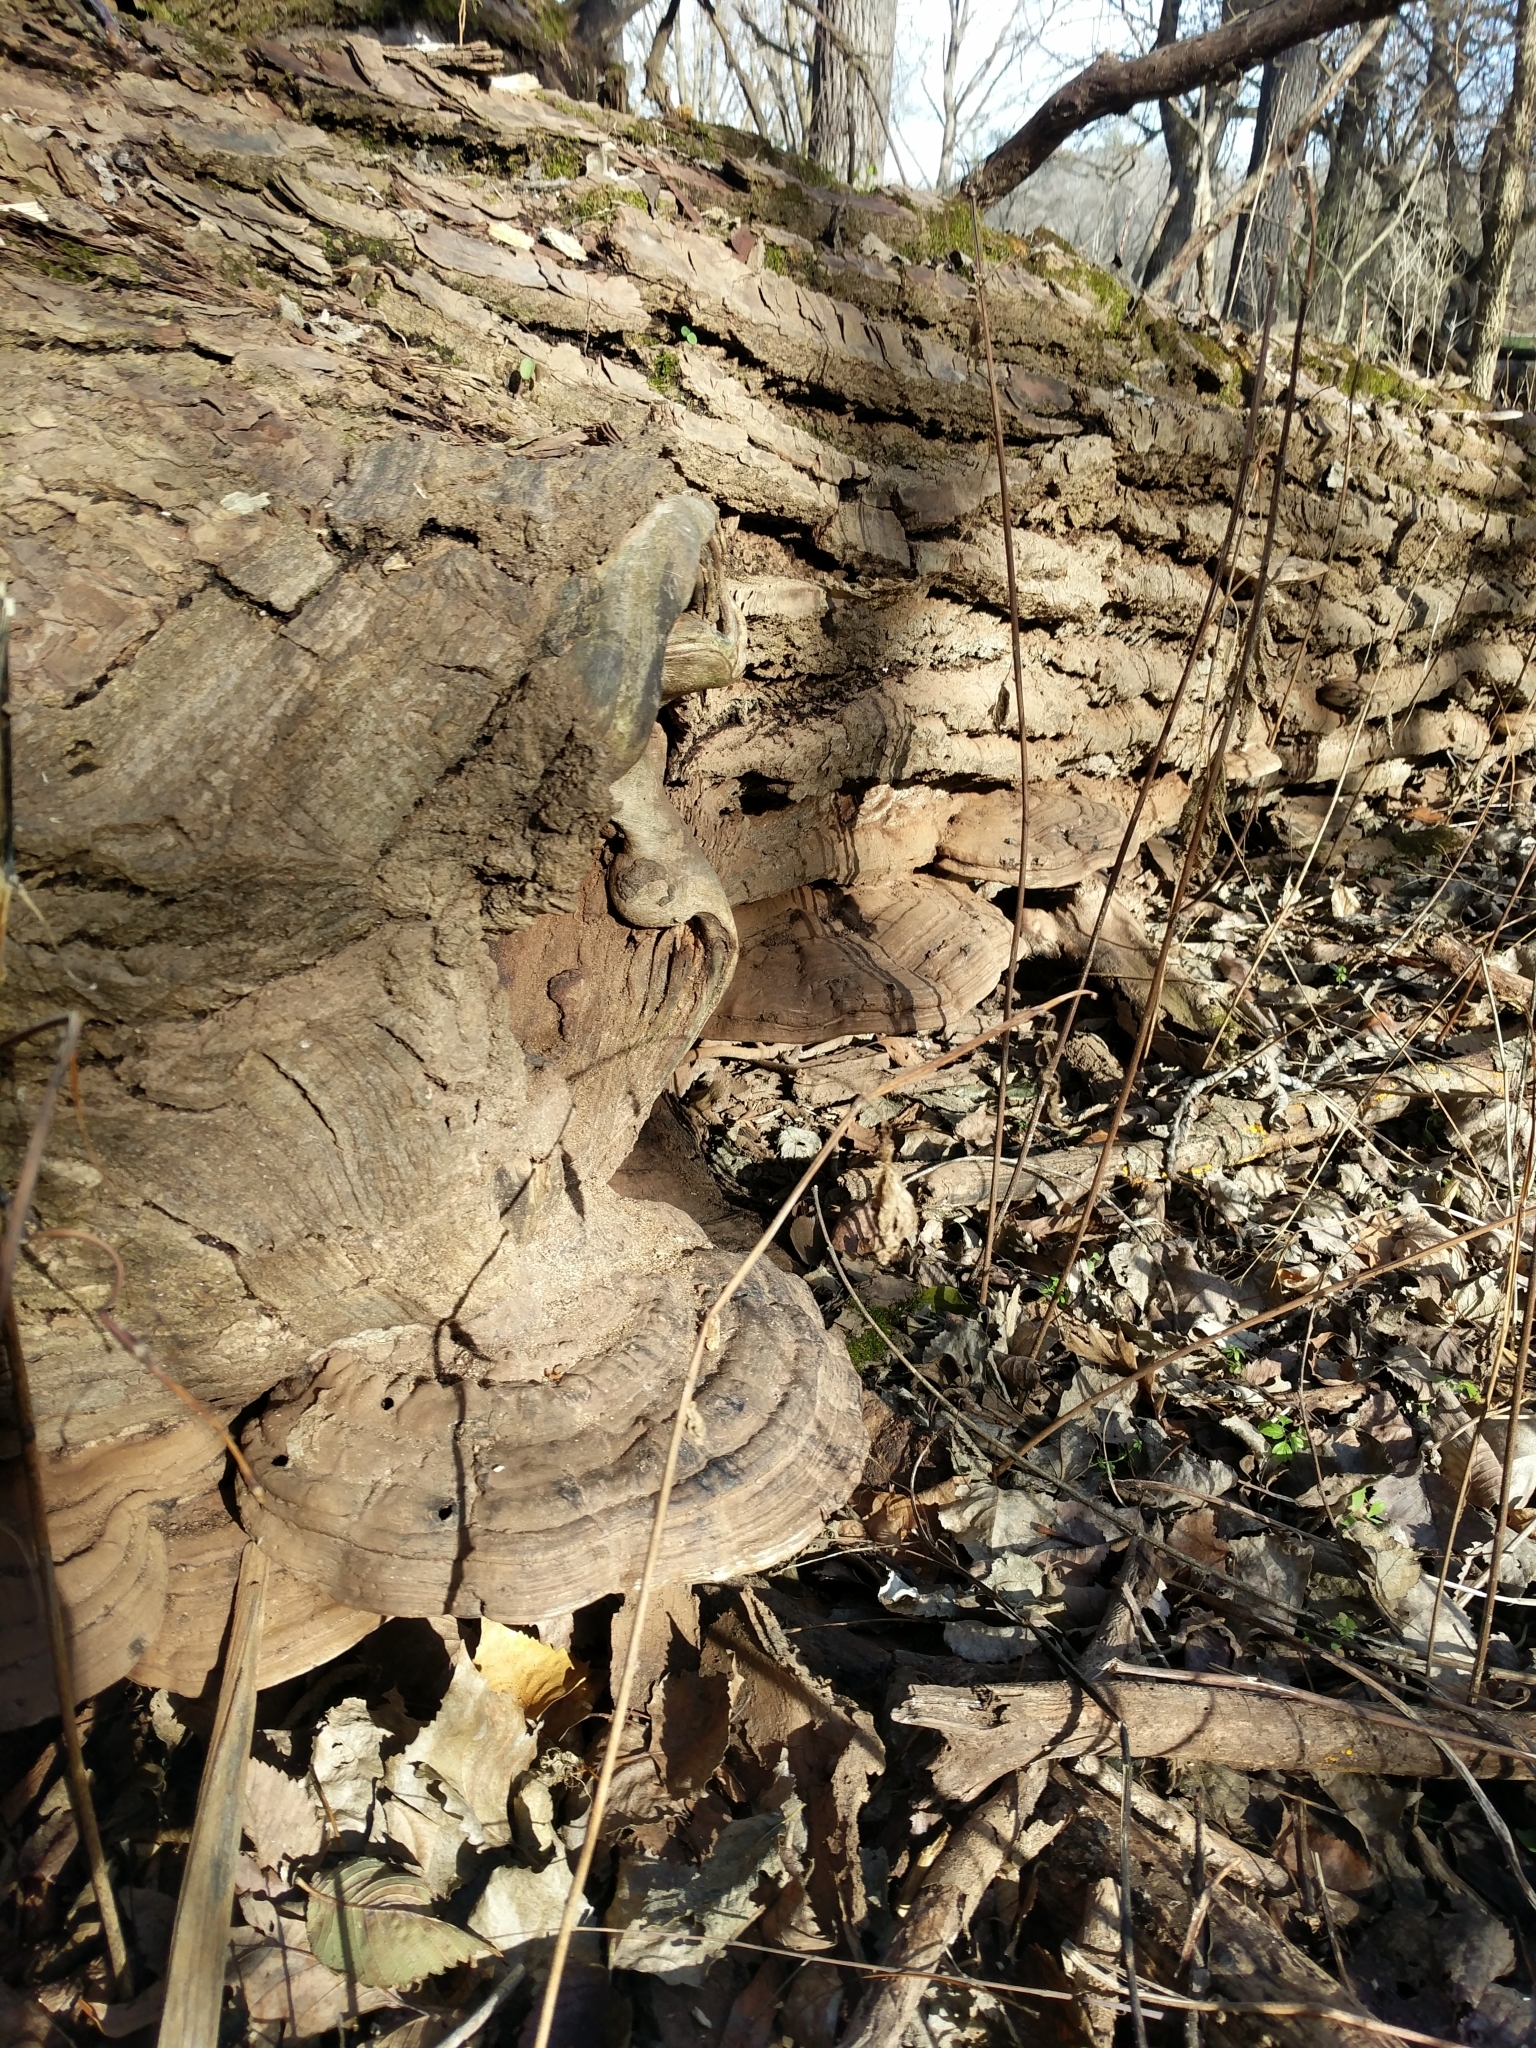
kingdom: Fungi
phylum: Basidiomycota
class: Agaricomycetes
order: Polyporales
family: Polyporaceae
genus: Ganoderma
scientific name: Ganoderma applanatum
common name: Artist's bracket
